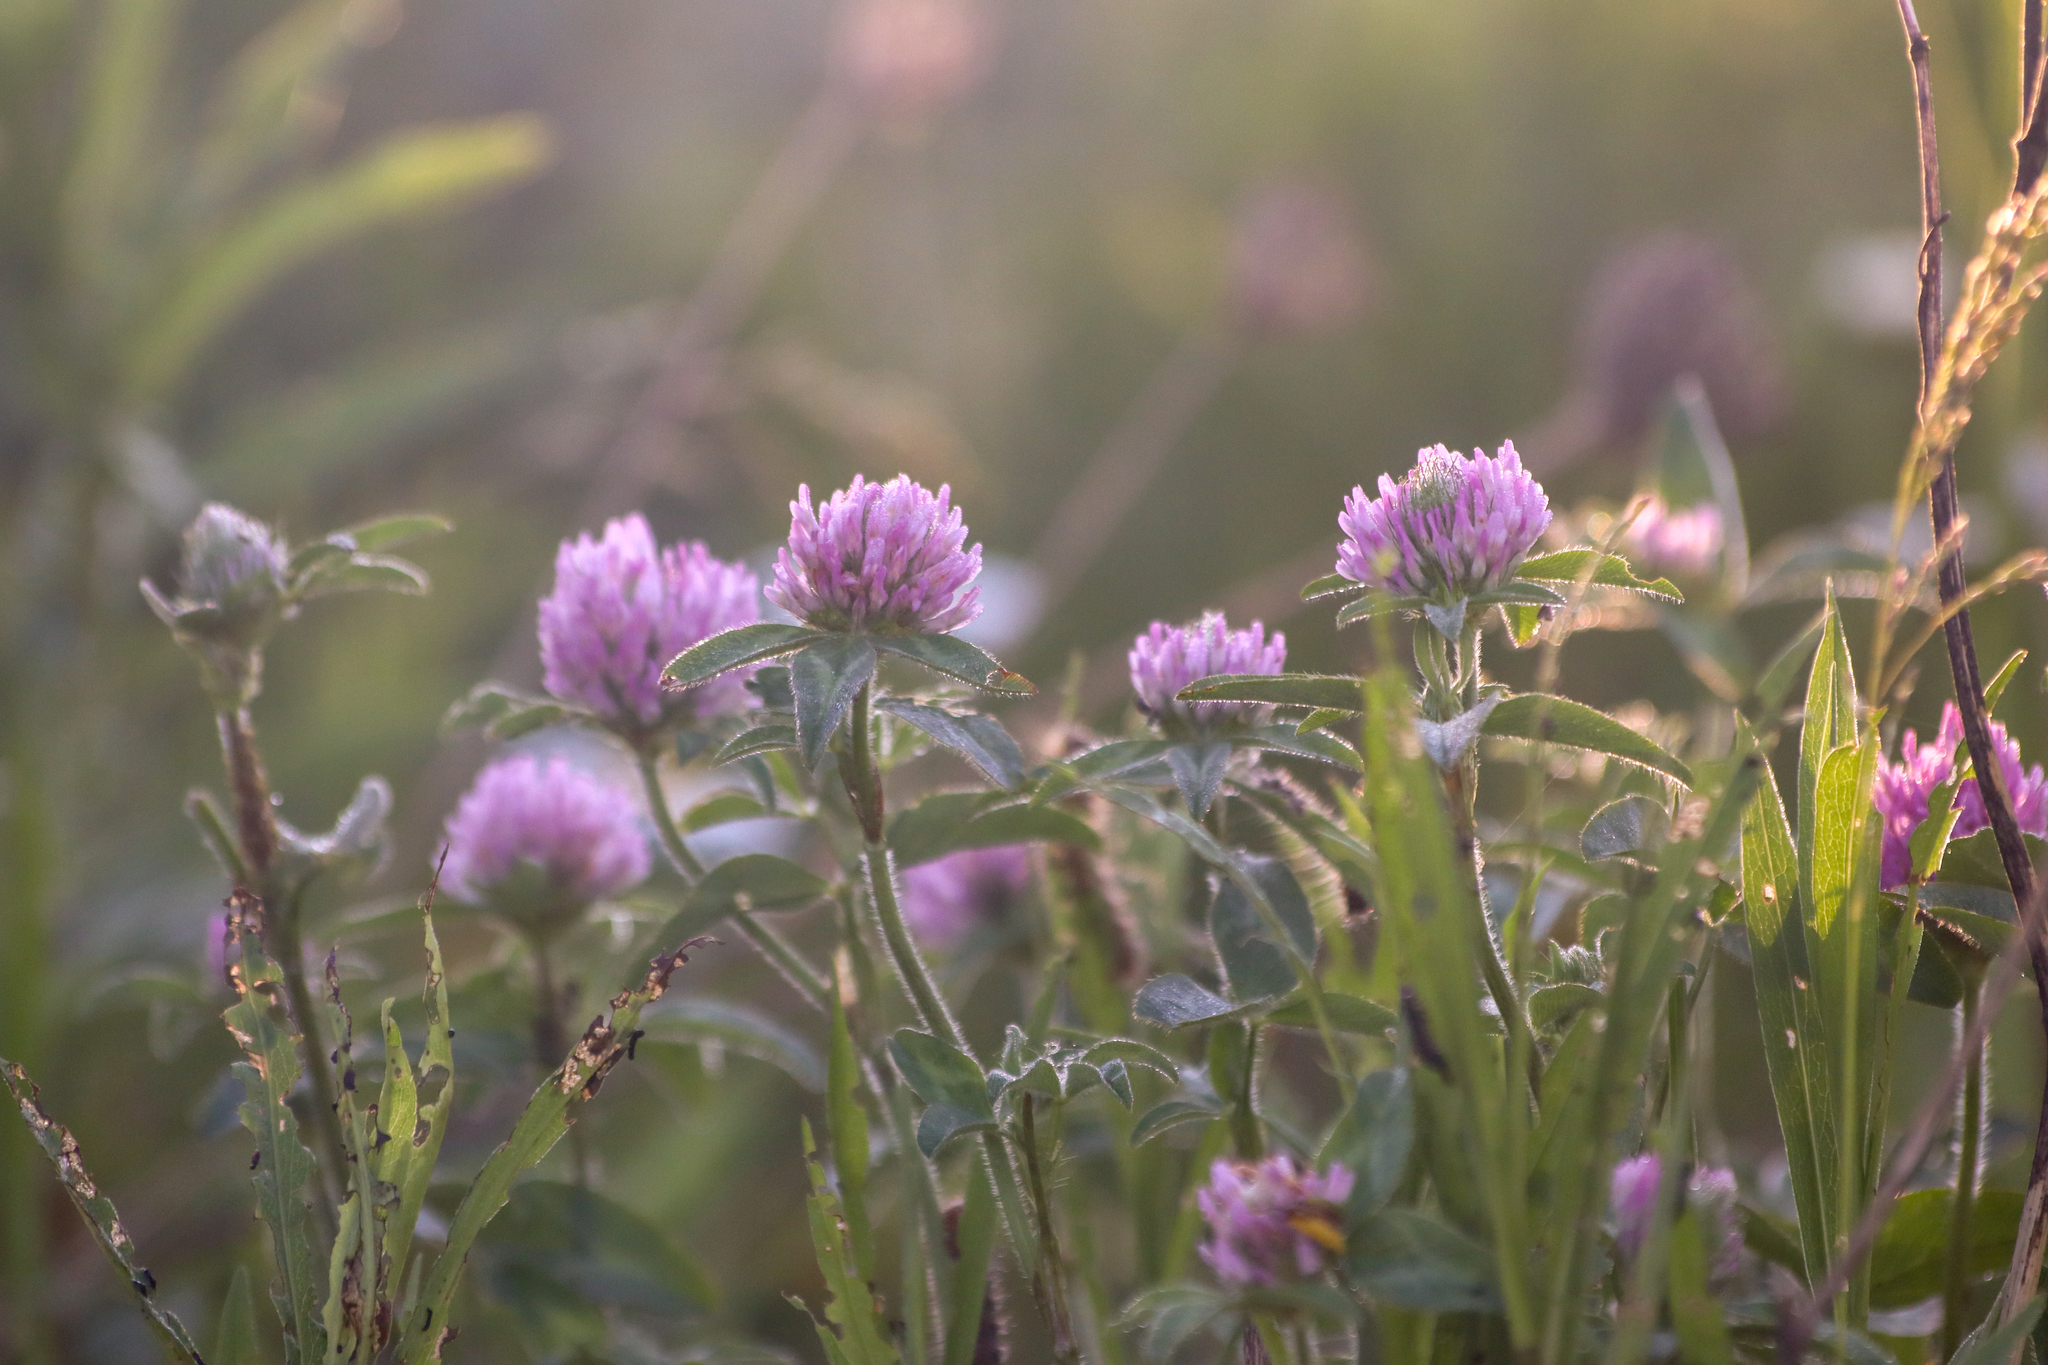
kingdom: Plantae
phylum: Tracheophyta
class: Magnoliopsida
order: Fabales
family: Fabaceae
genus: Trifolium
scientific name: Trifolium pratense
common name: Red clover
